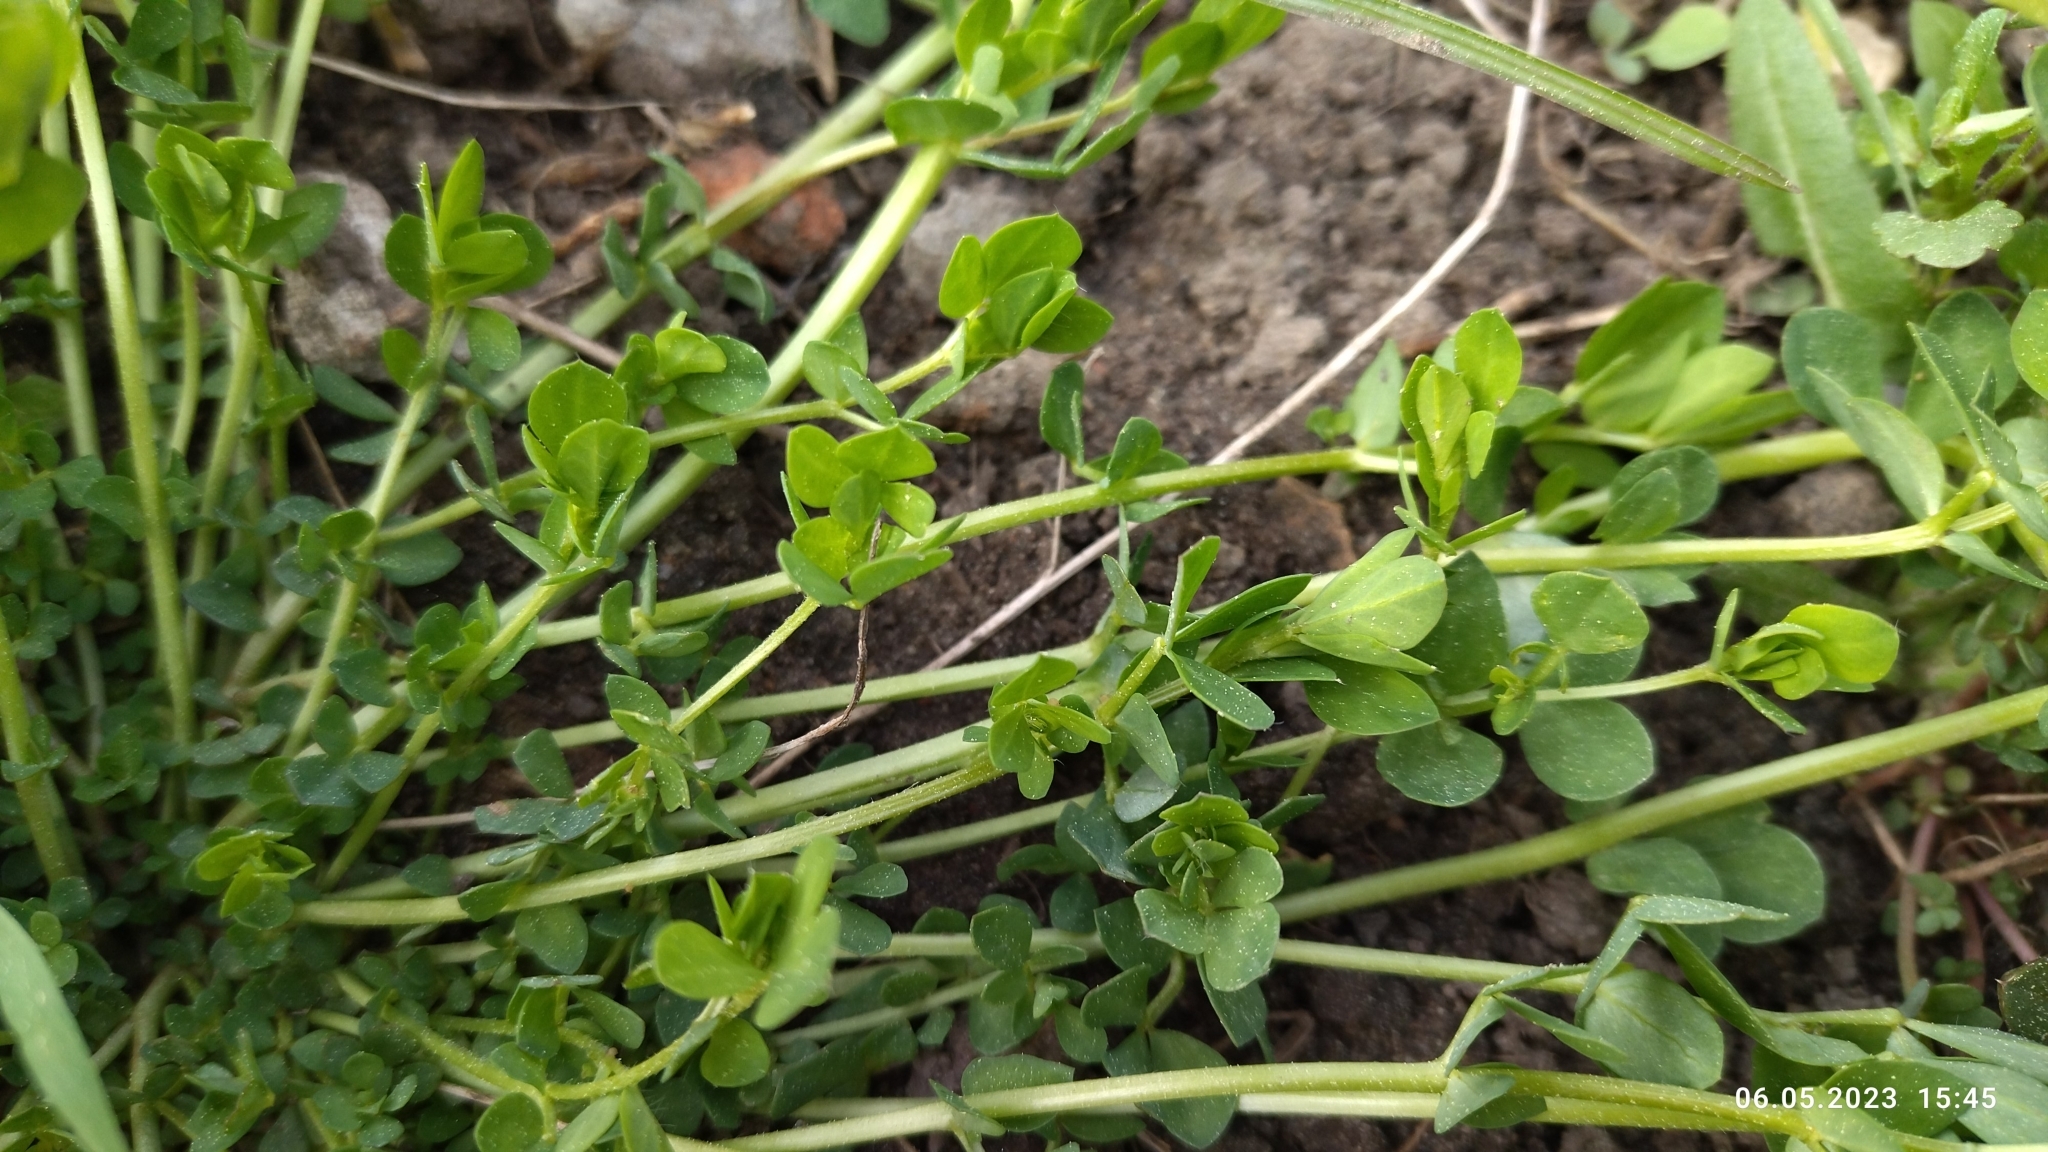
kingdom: Plantae
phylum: Tracheophyta
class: Magnoliopsida
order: Fabales
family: Fabaceae
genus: Lotus
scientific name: Lotus corniculatus
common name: Common bird's-foot-trefoil
